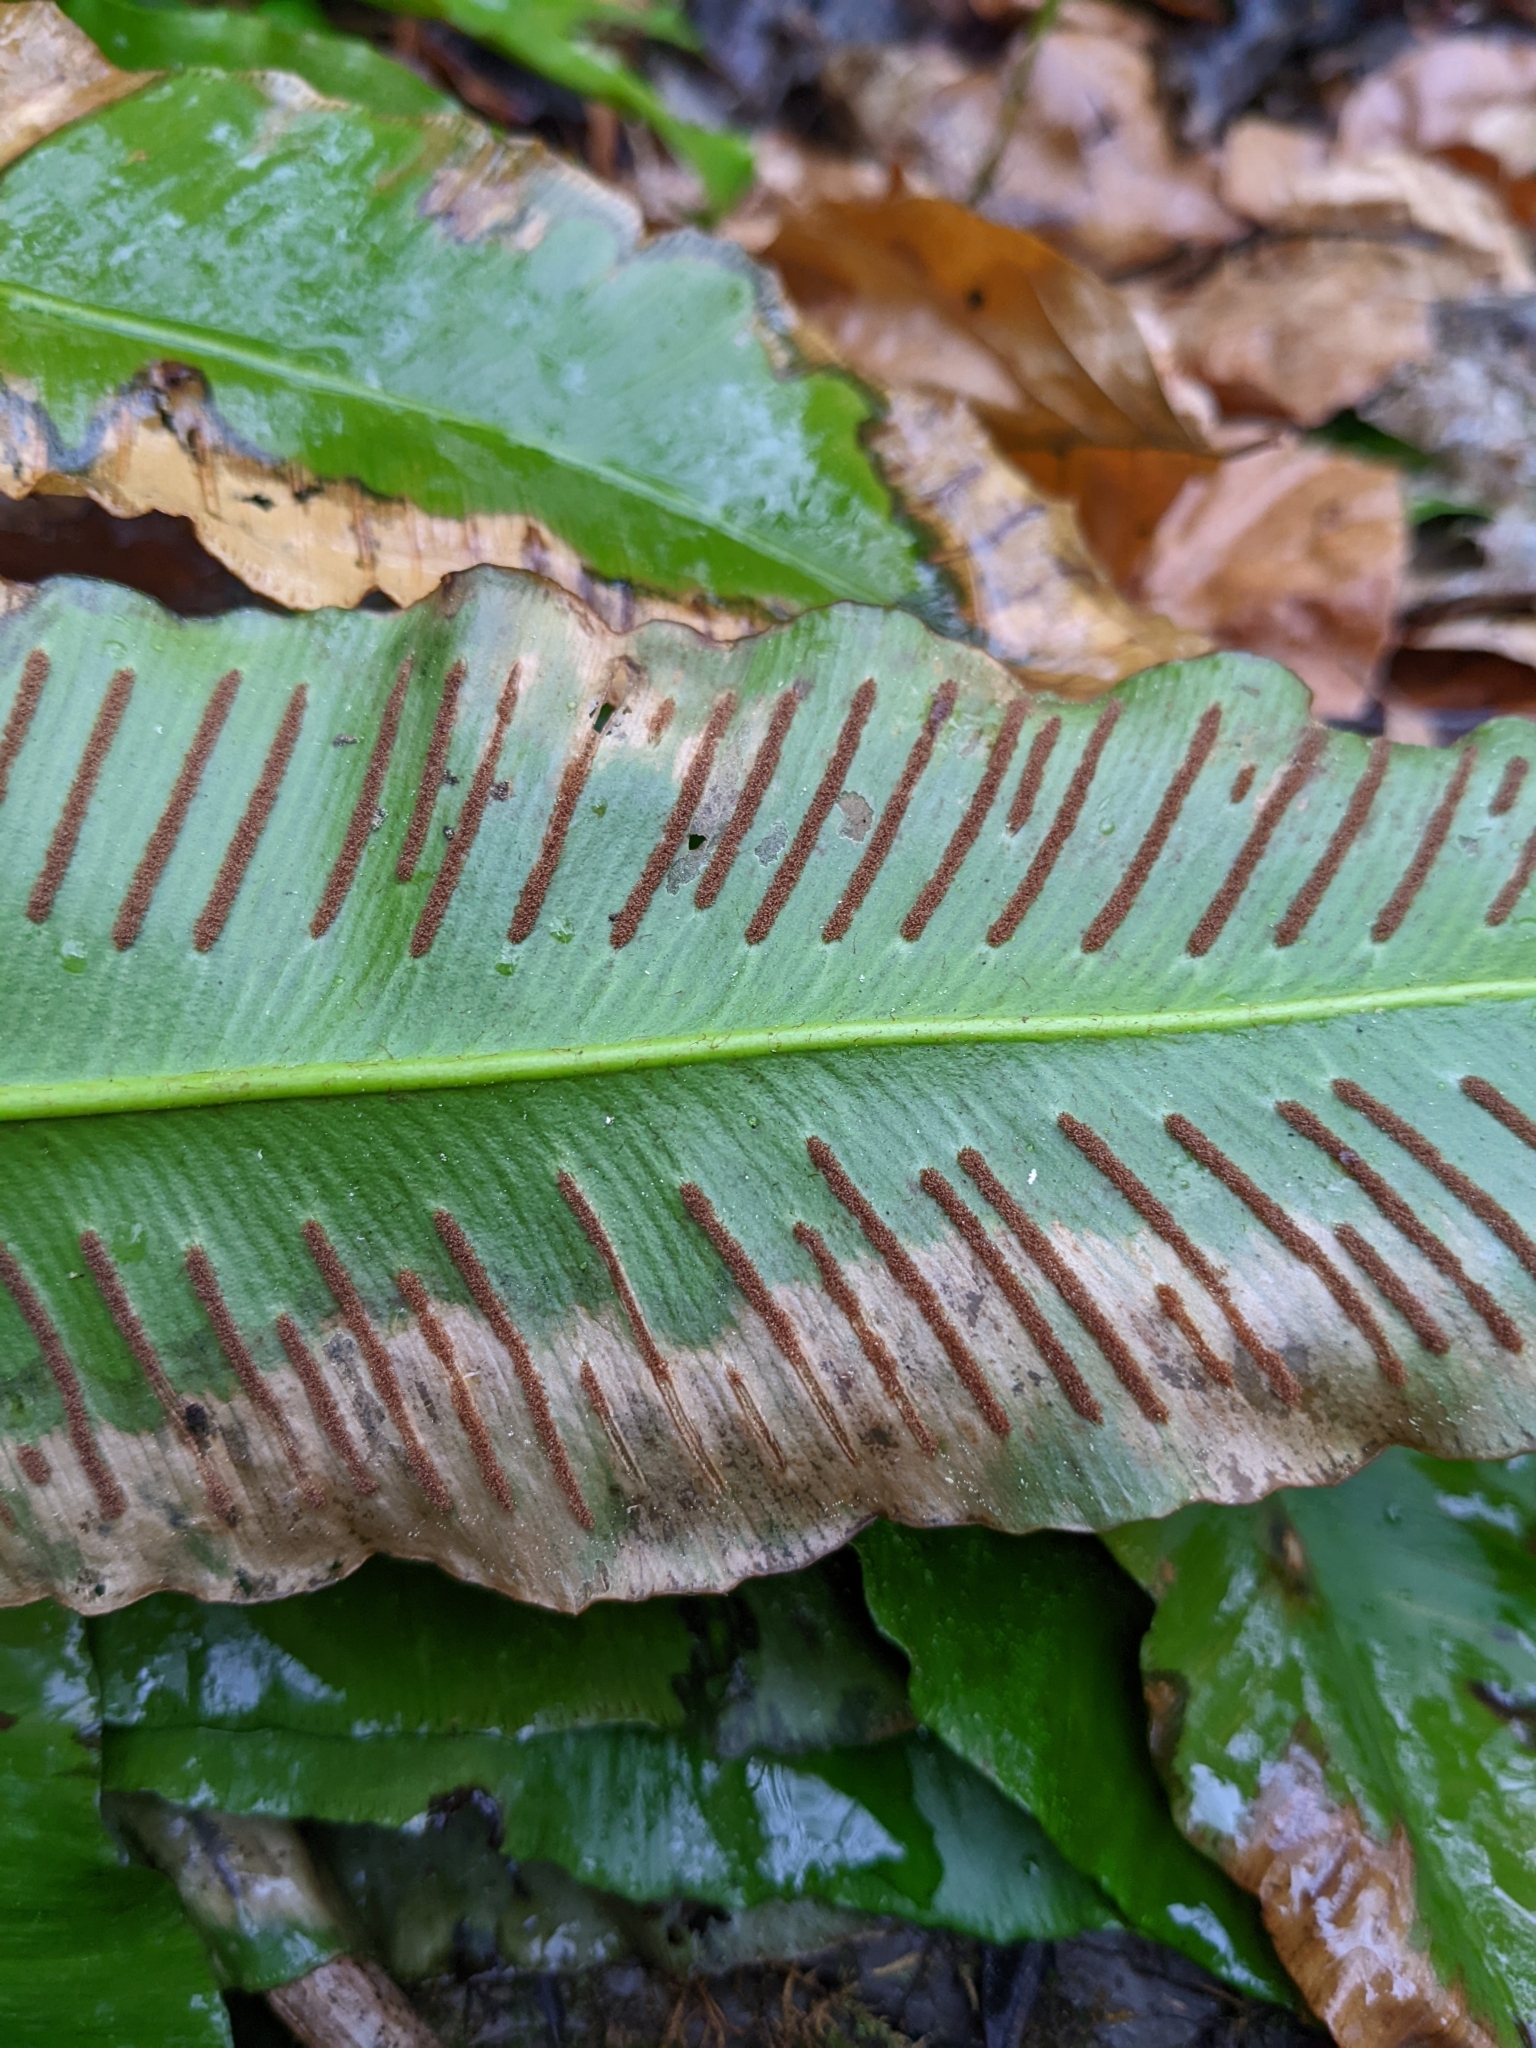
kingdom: Plantae
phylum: Tracheophyta
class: Polypodiopsida
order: Polypodiales
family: Aspleniaceae
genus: Asplenium
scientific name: Asplenium scolopendrium
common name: Hart's-tongue fern
